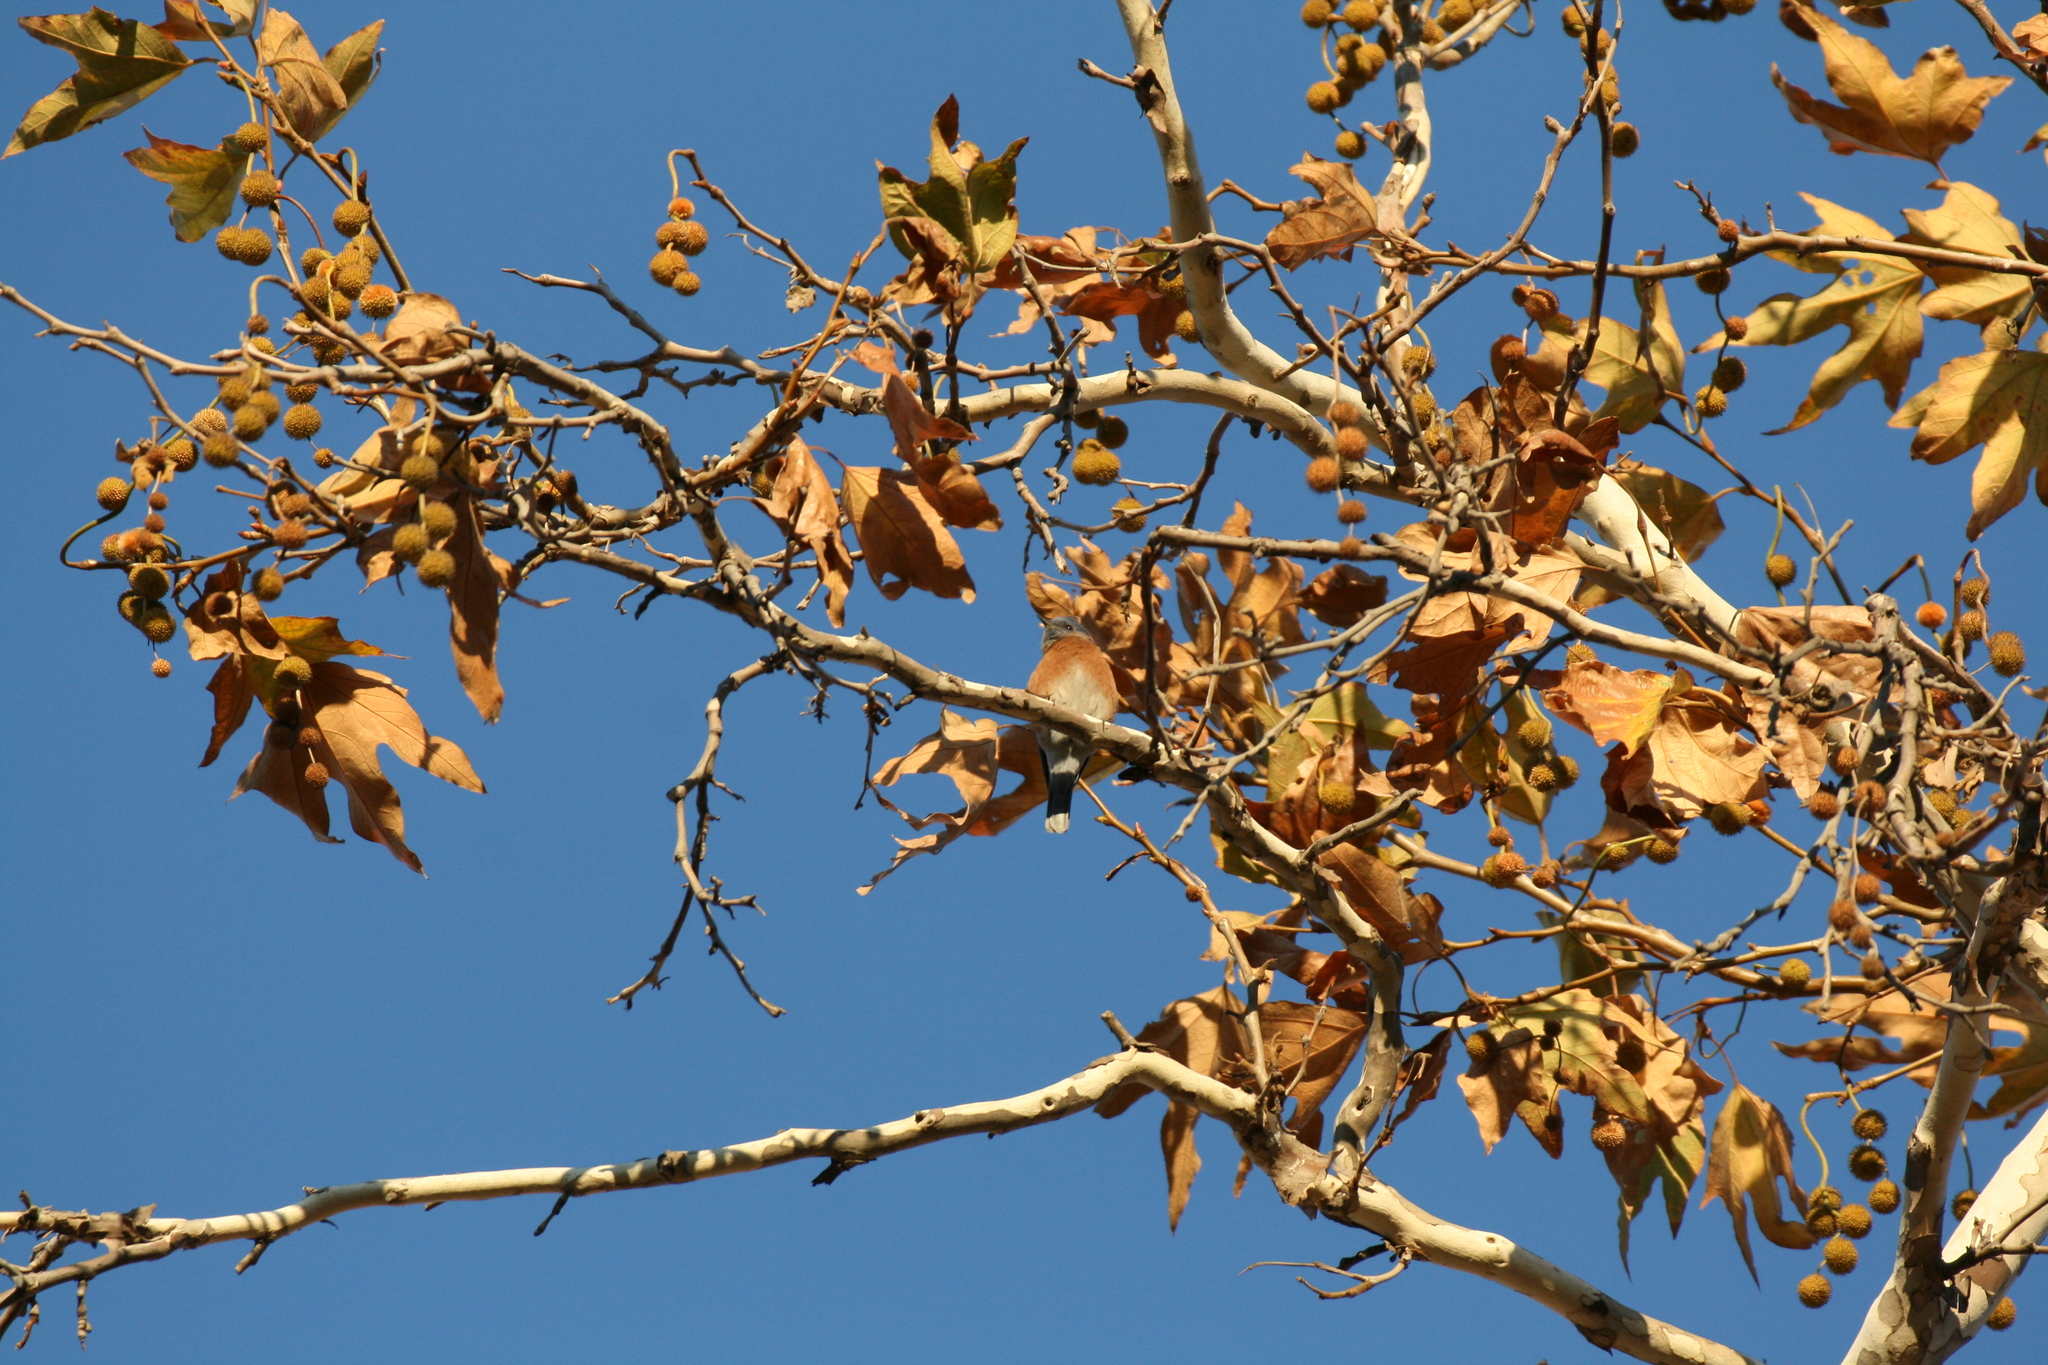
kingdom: Animalia
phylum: Chordata
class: Aves
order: Passeriformes
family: Turdidae
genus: Sialia
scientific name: Sialia mexicana
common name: Western bluebird
